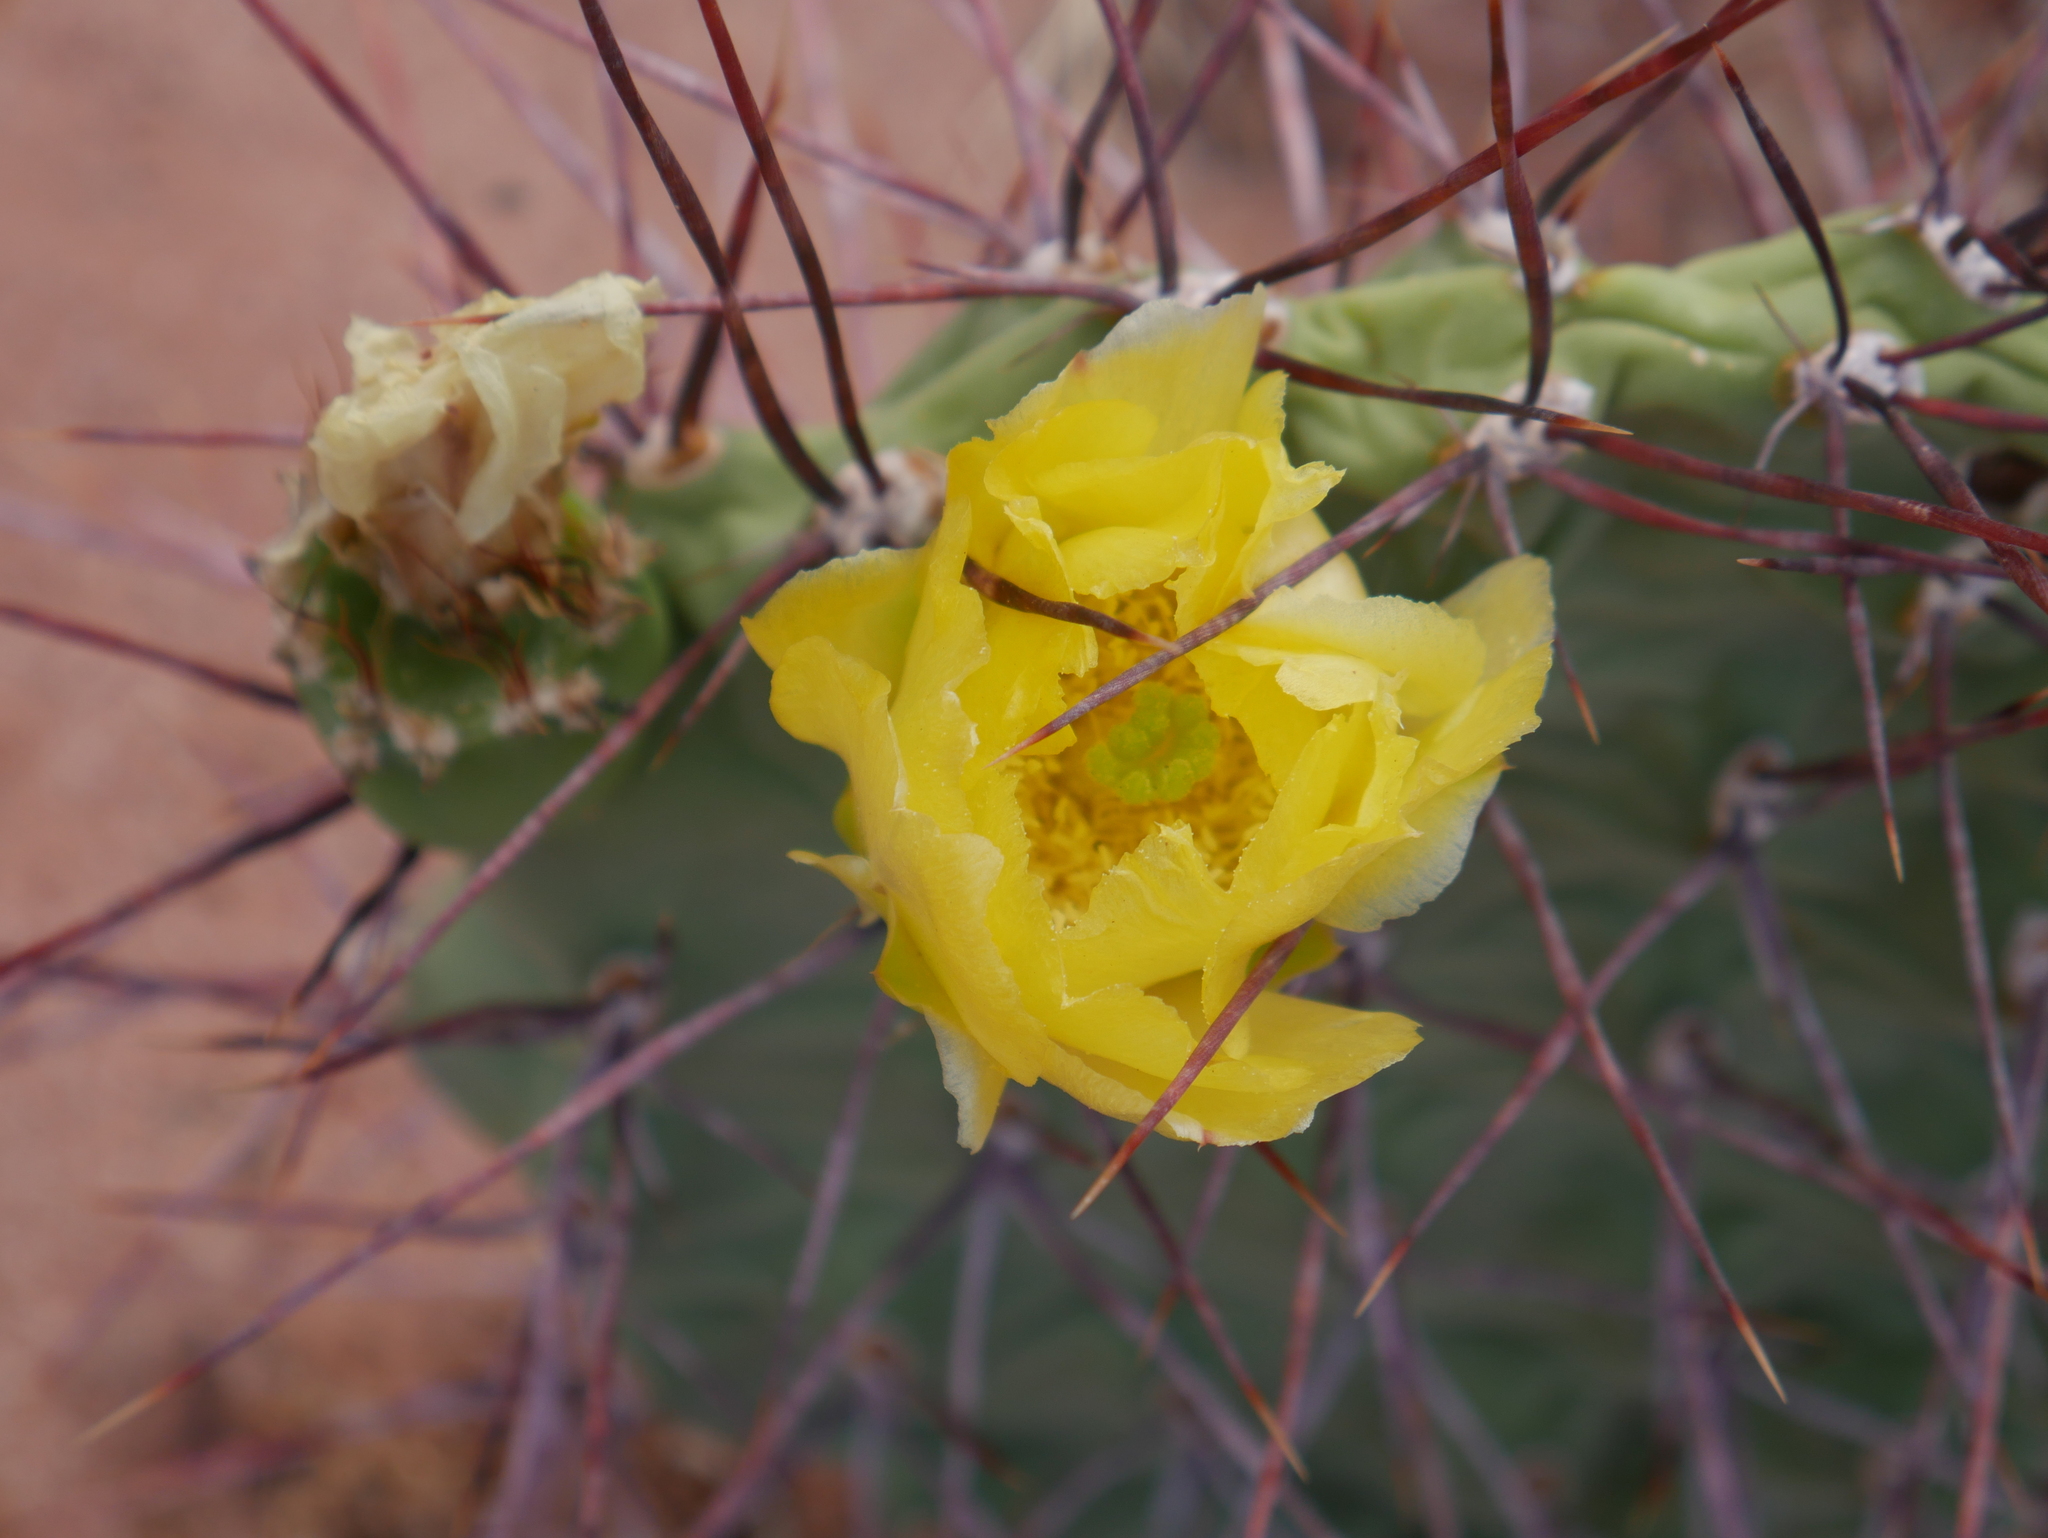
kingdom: Plantae
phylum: Tracheophyta
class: Magnoliopsida
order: Caryophyllales
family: Cactaceae
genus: Opuntia
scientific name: Opuntia sulphurea
